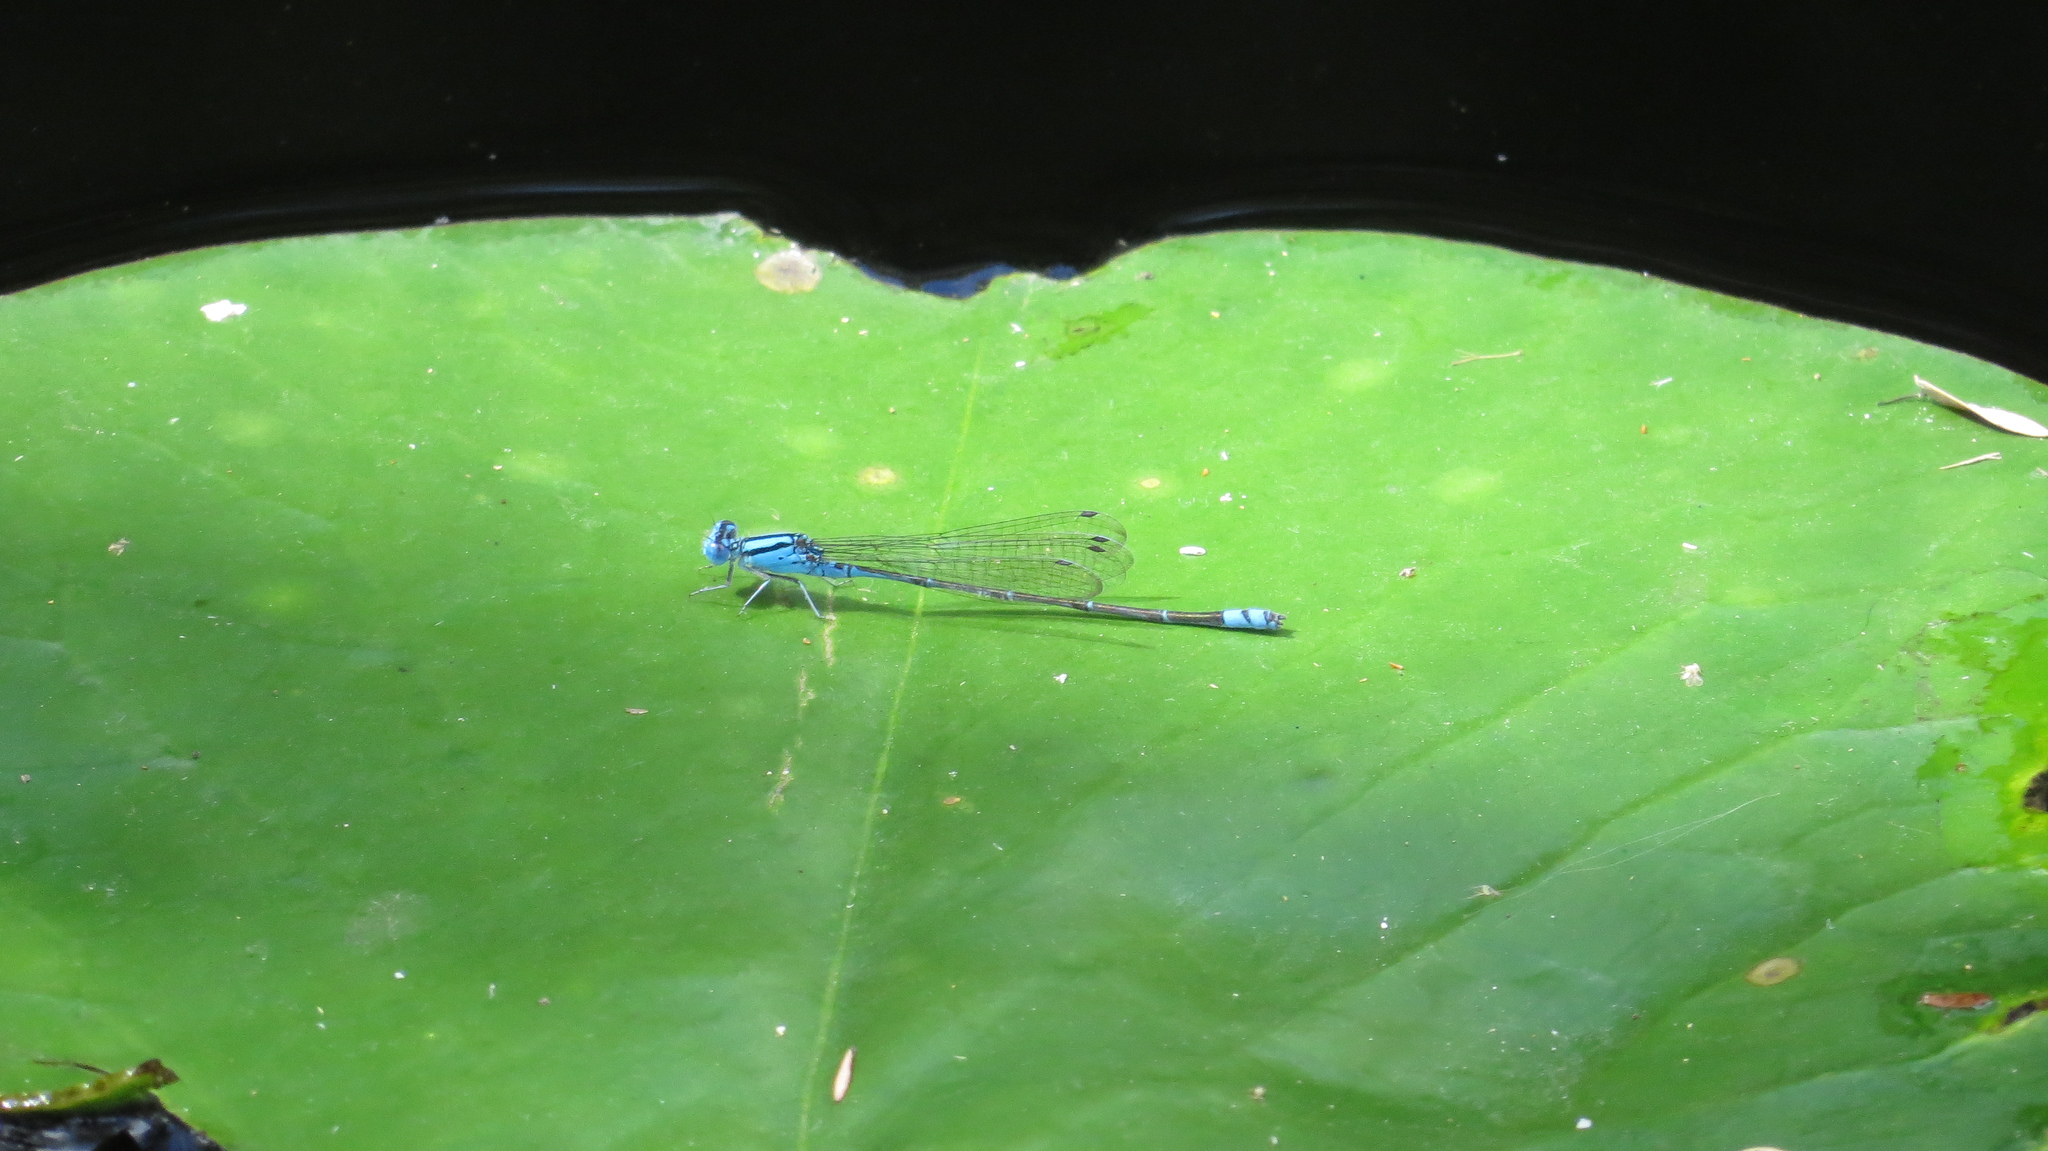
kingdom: Animalia
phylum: Arthropoda
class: Insecta
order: Odonata
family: Coenagrionidae
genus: Pseudagrion
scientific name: Pseudagrion microcephalum
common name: Blue riverdamsel
